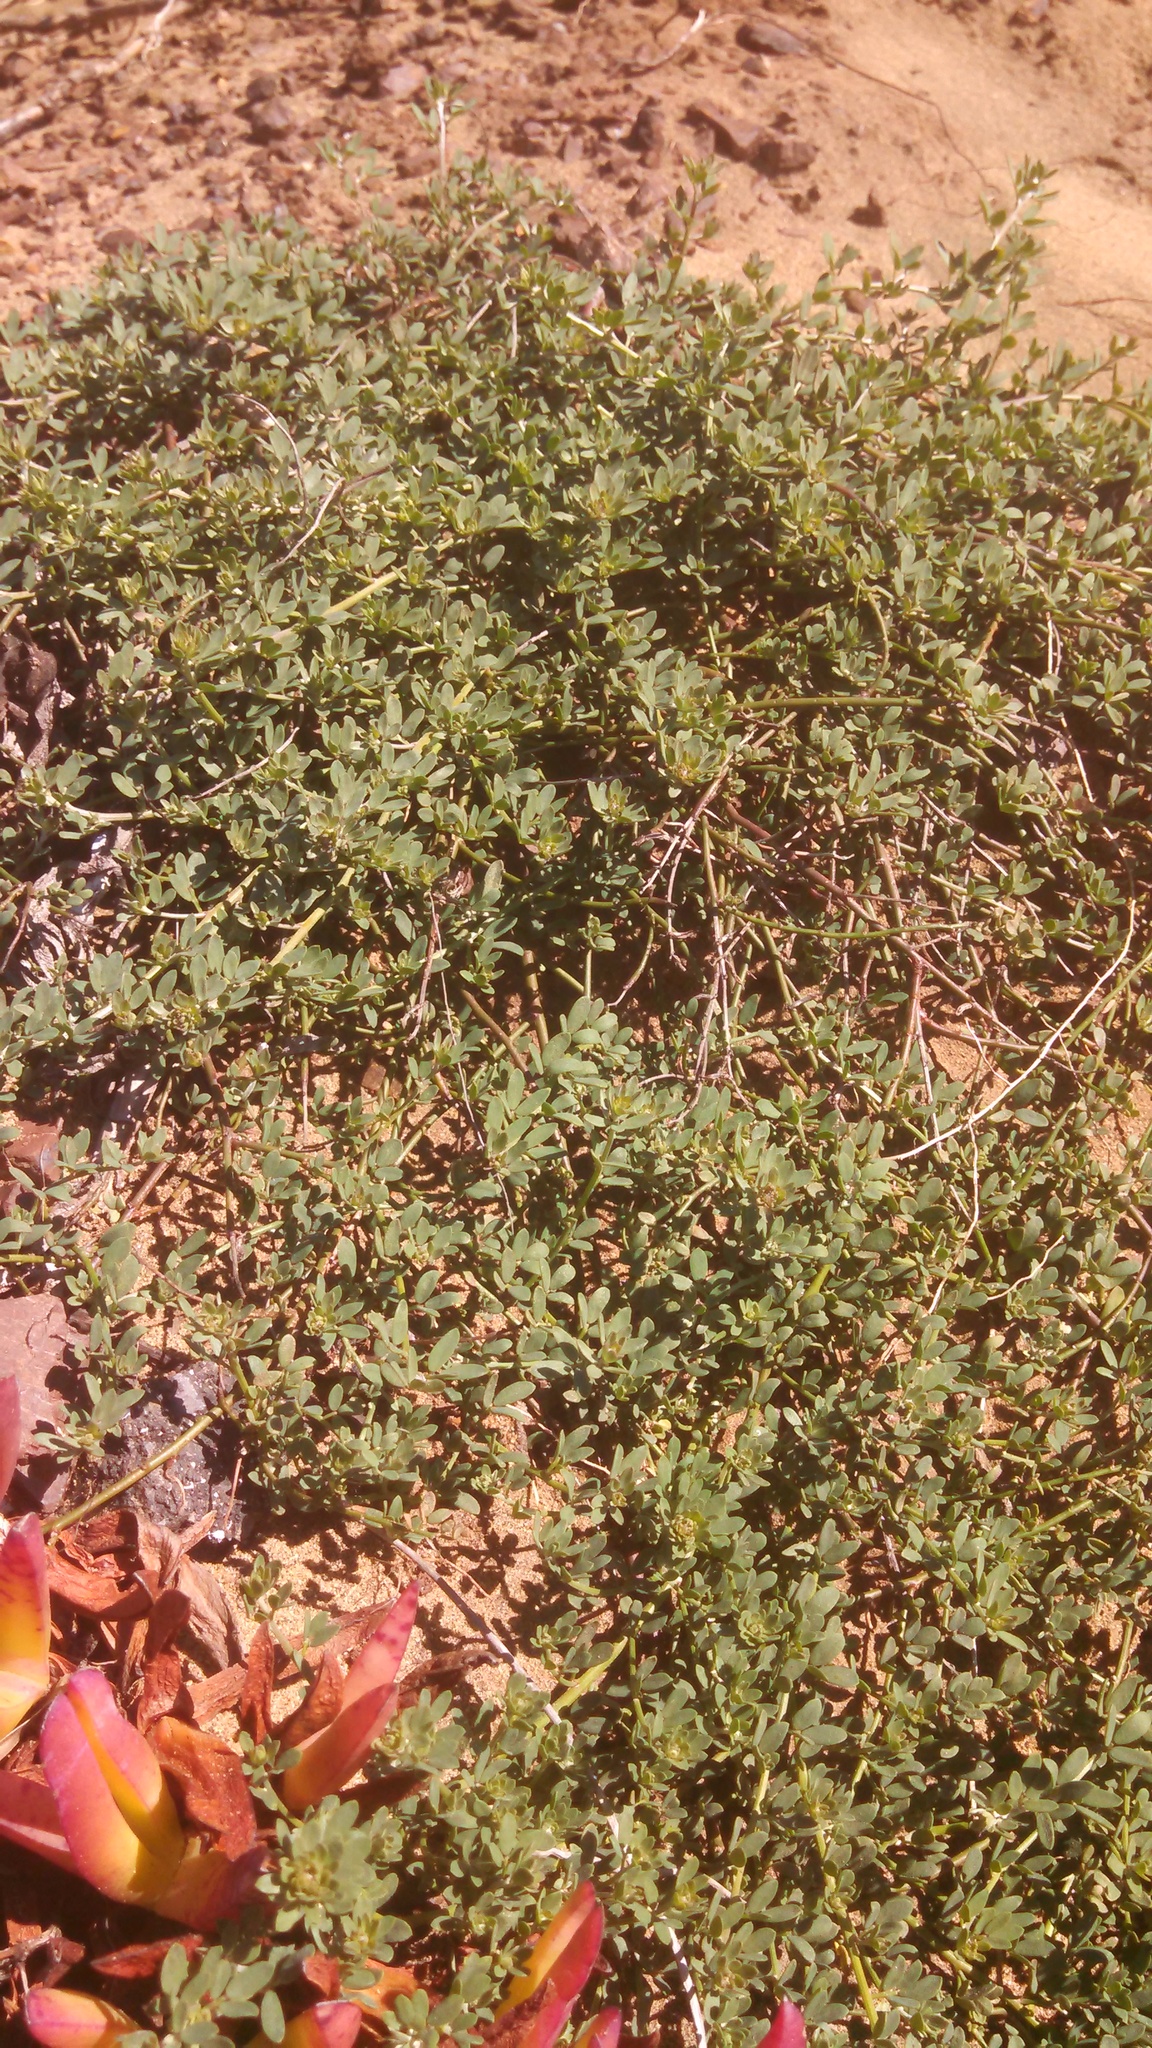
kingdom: Plantae
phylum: Tracheophyta
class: Magnoliopsida
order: Fabales
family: Fabaceae
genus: Acmispon
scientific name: Acmispon glaber
